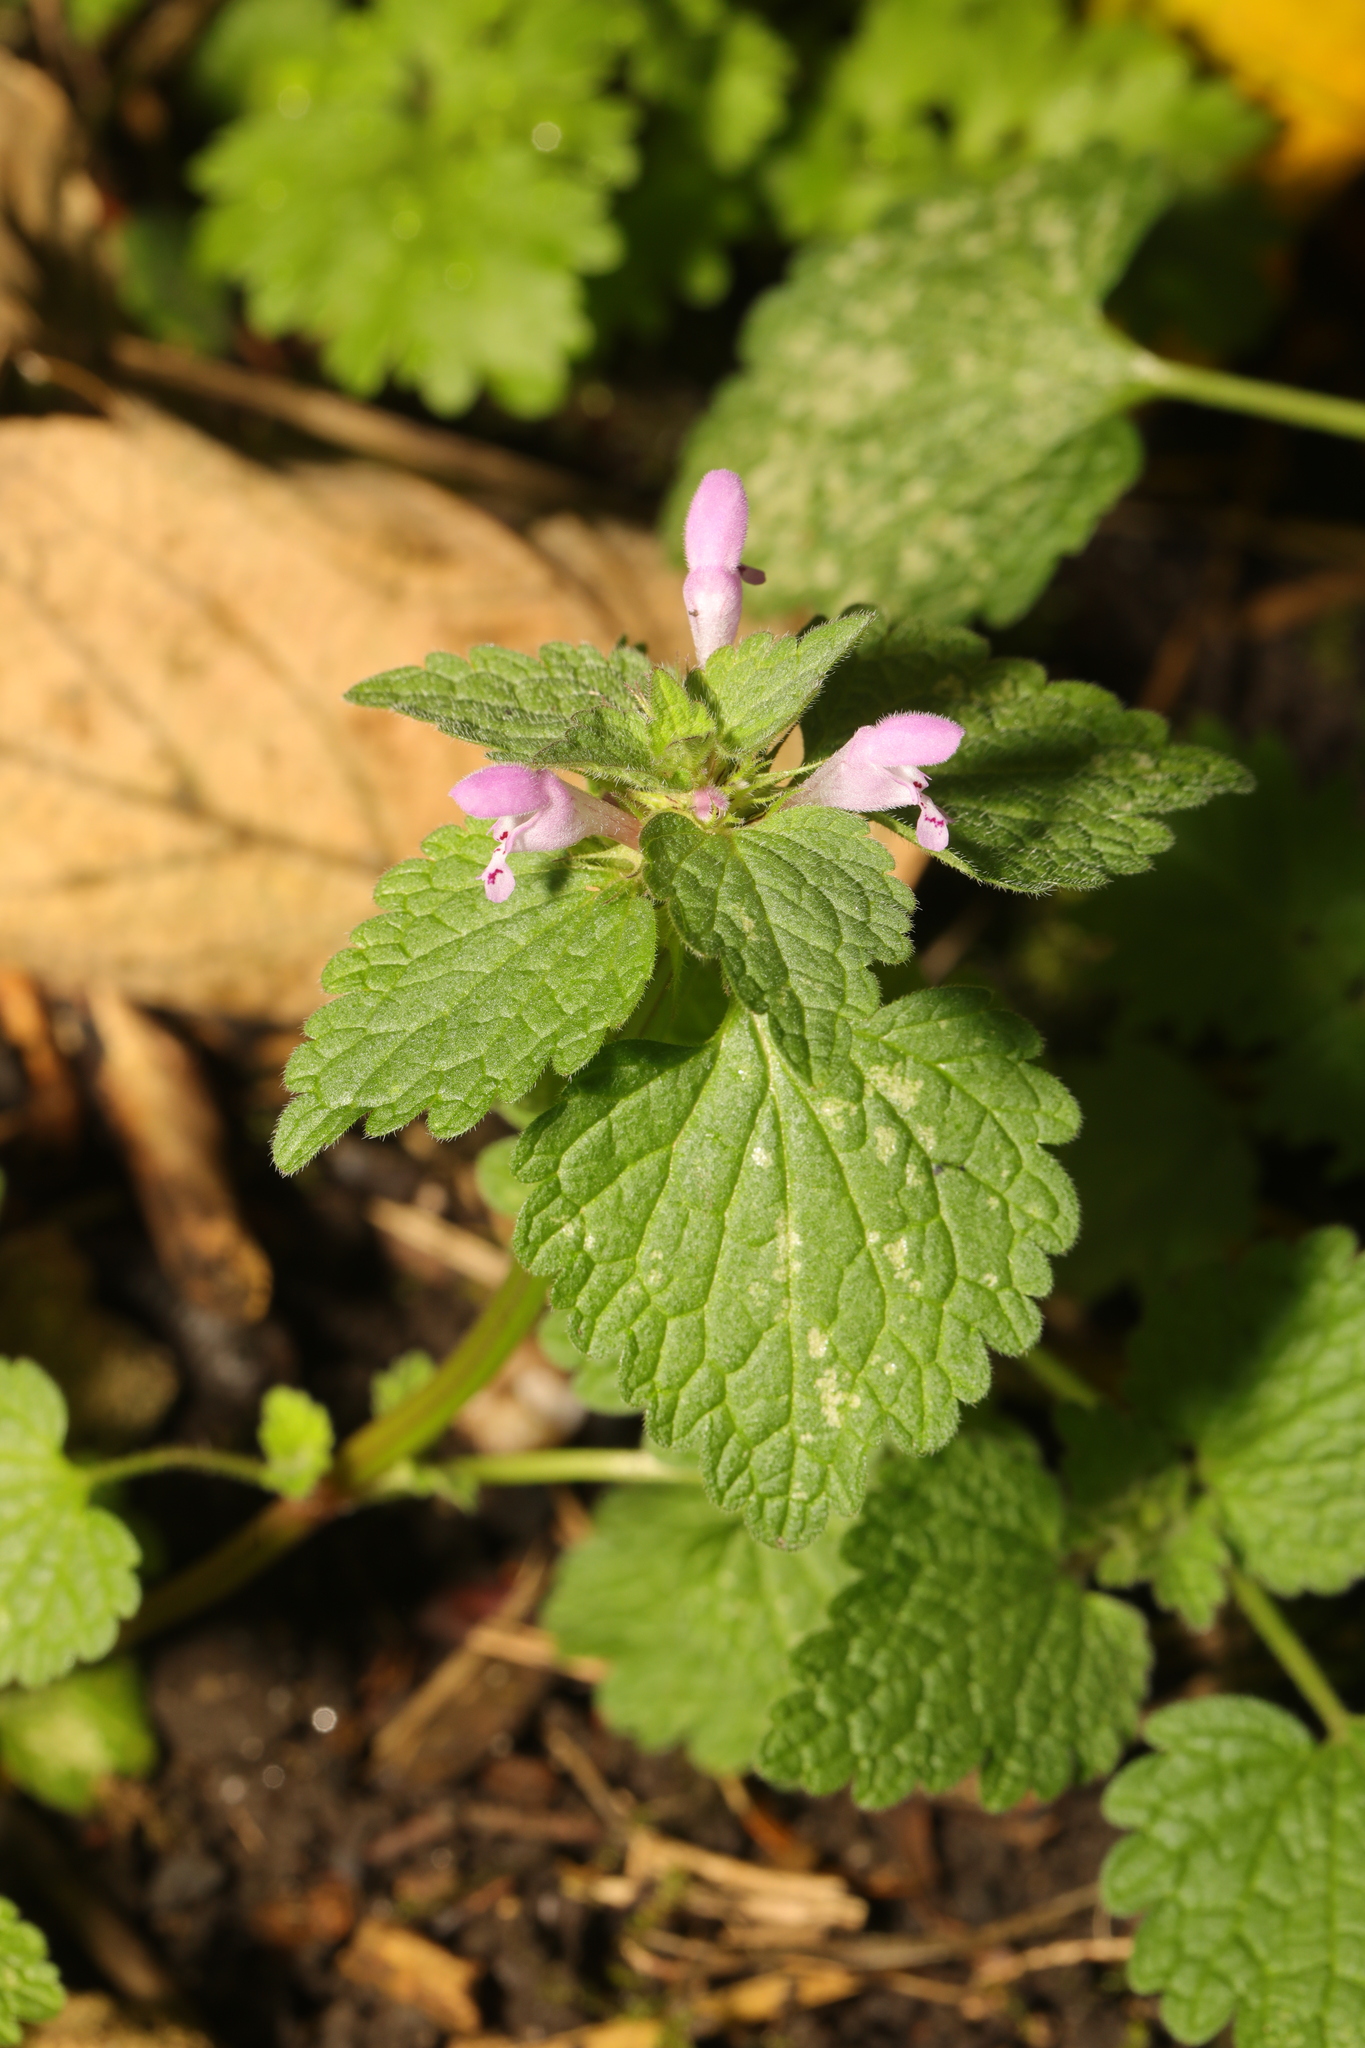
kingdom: Plantae
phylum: Tracheophyta
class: Magnoliopsida
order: Lamiales
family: Lamiaceae
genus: Lamium
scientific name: Lamium purpureum
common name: Red dead-nettle
